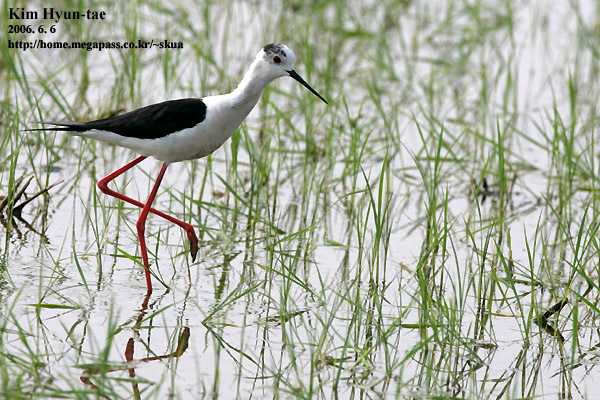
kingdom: Animalia
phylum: Chordata
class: Aves
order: Charadriiformes
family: Recurvirostridae
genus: Himantopus
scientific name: Himantopus himantopus
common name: Black-winged stilt
